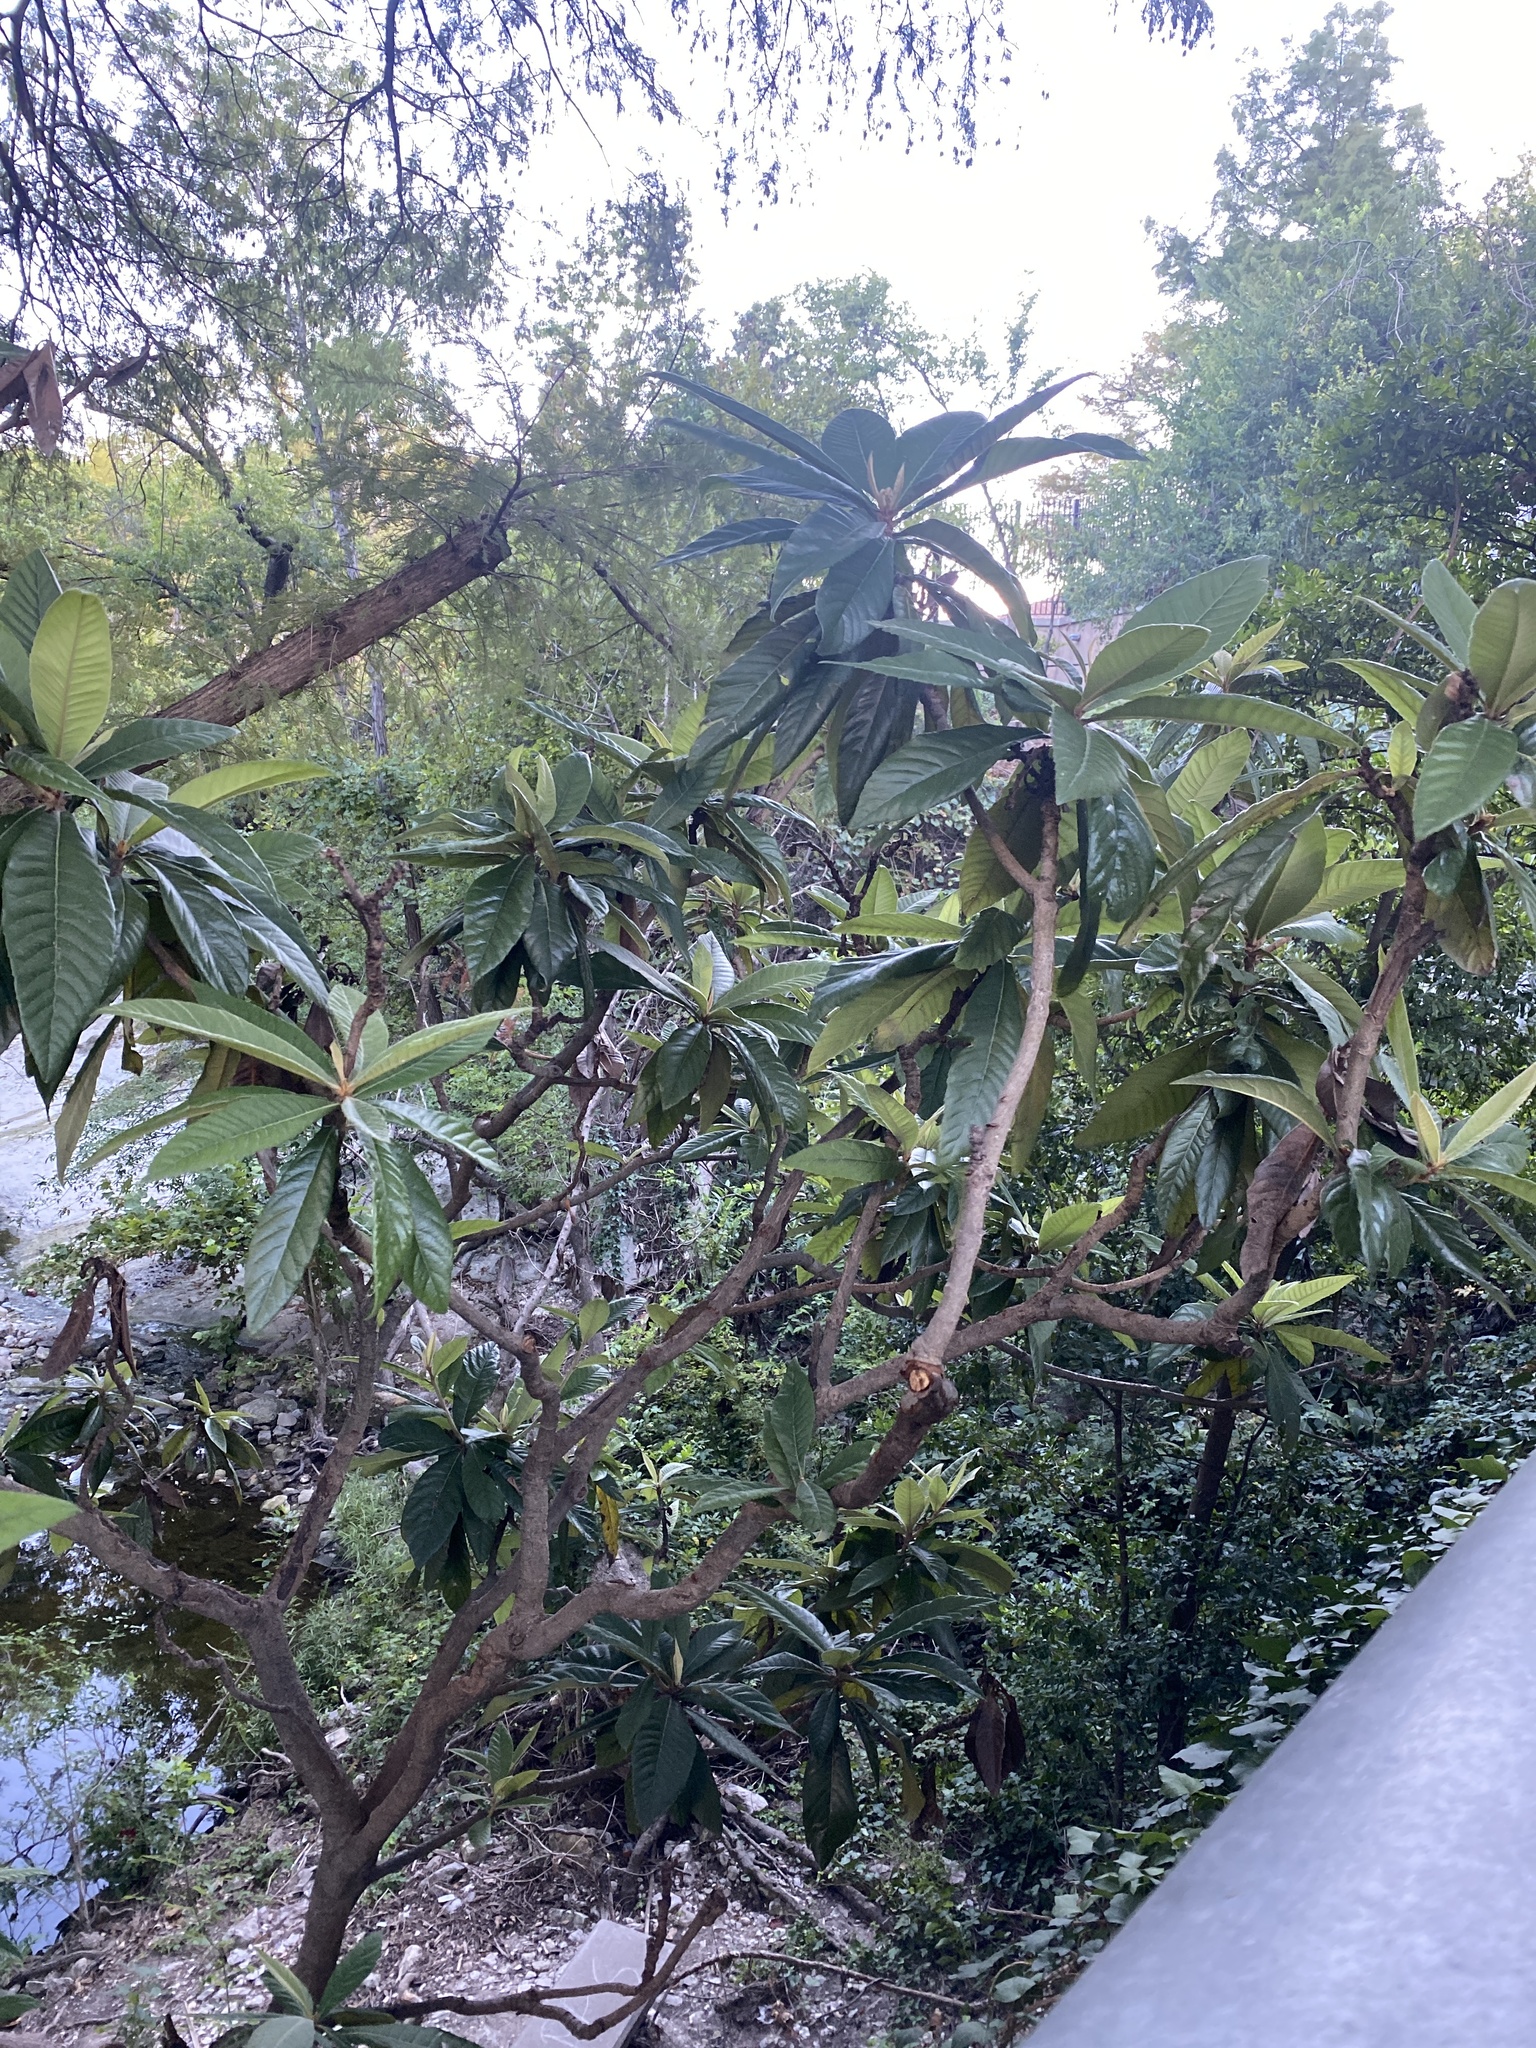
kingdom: Plantae
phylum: Tracheophyta
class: Magnoliopsida
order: Rosales
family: Rosaceae
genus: Rhaphiolepis
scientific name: Rhaphiolepis bibas
